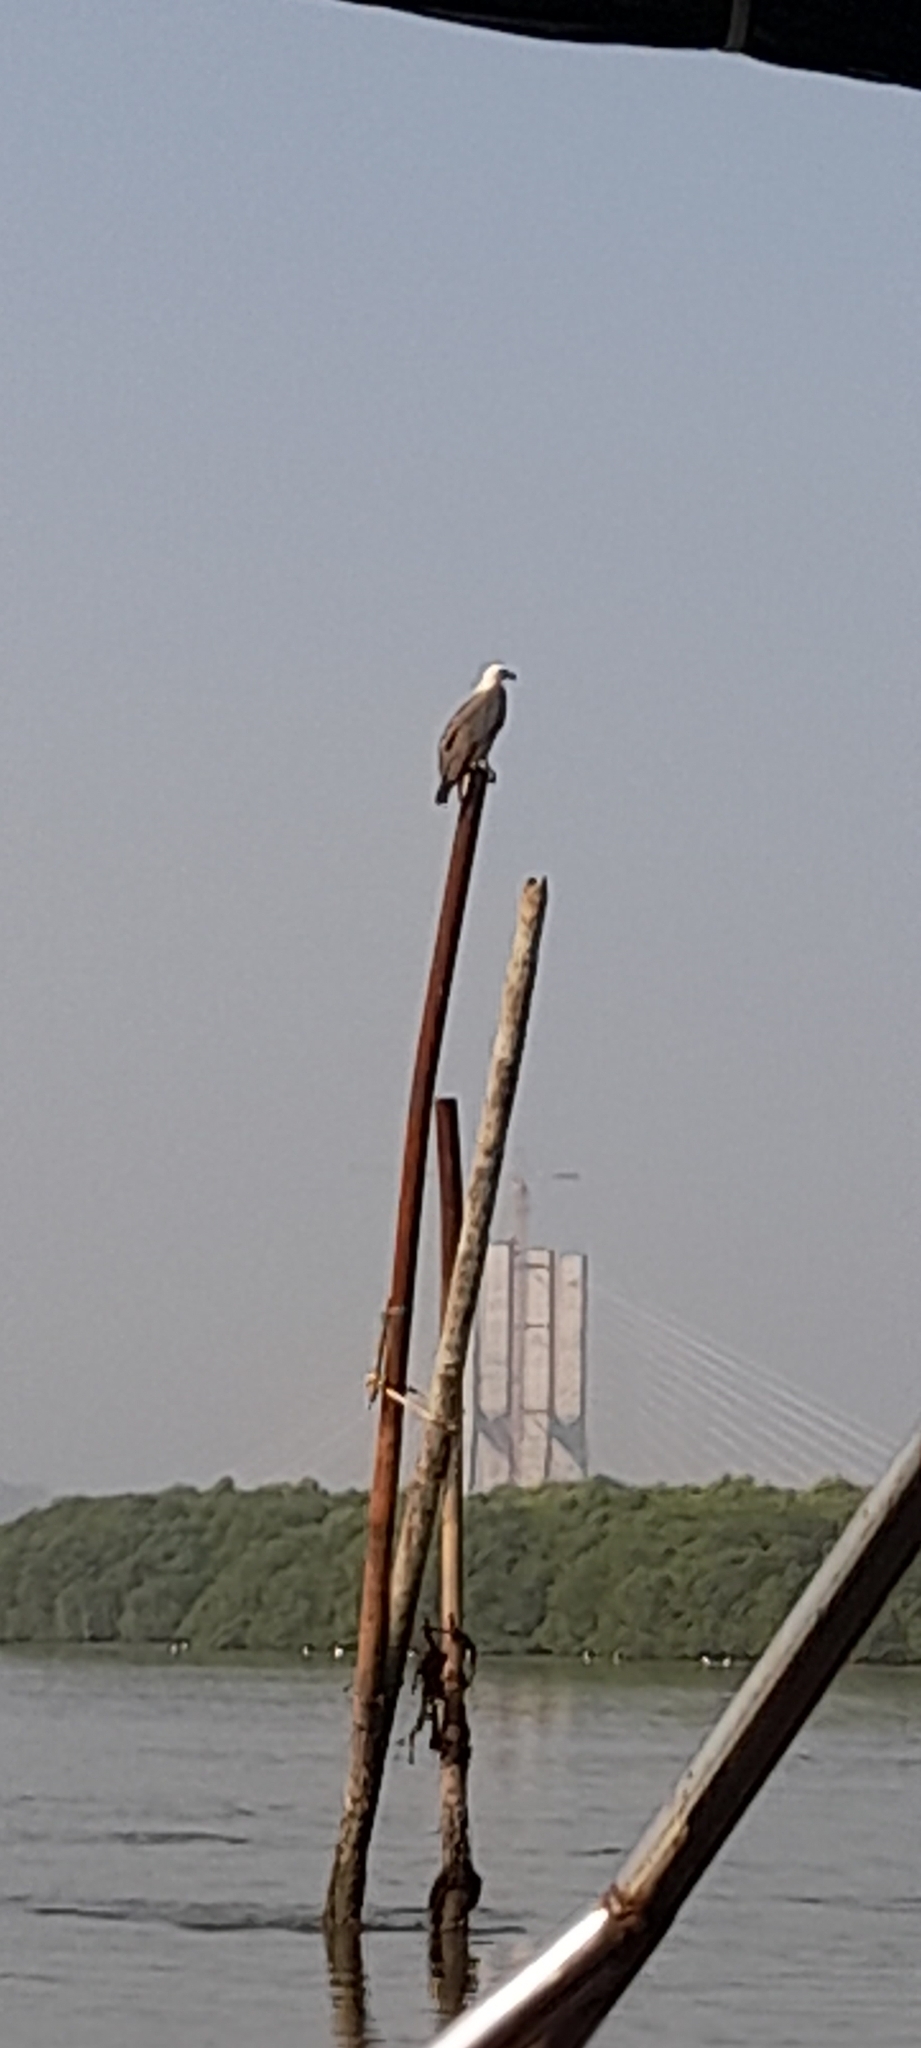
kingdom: Animalia
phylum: Chordata
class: Aves
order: Accipitriformes
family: Accipitridae
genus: Haliaeetus
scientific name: Haliaeetus leucogaster
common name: White-bellied sea eagle
